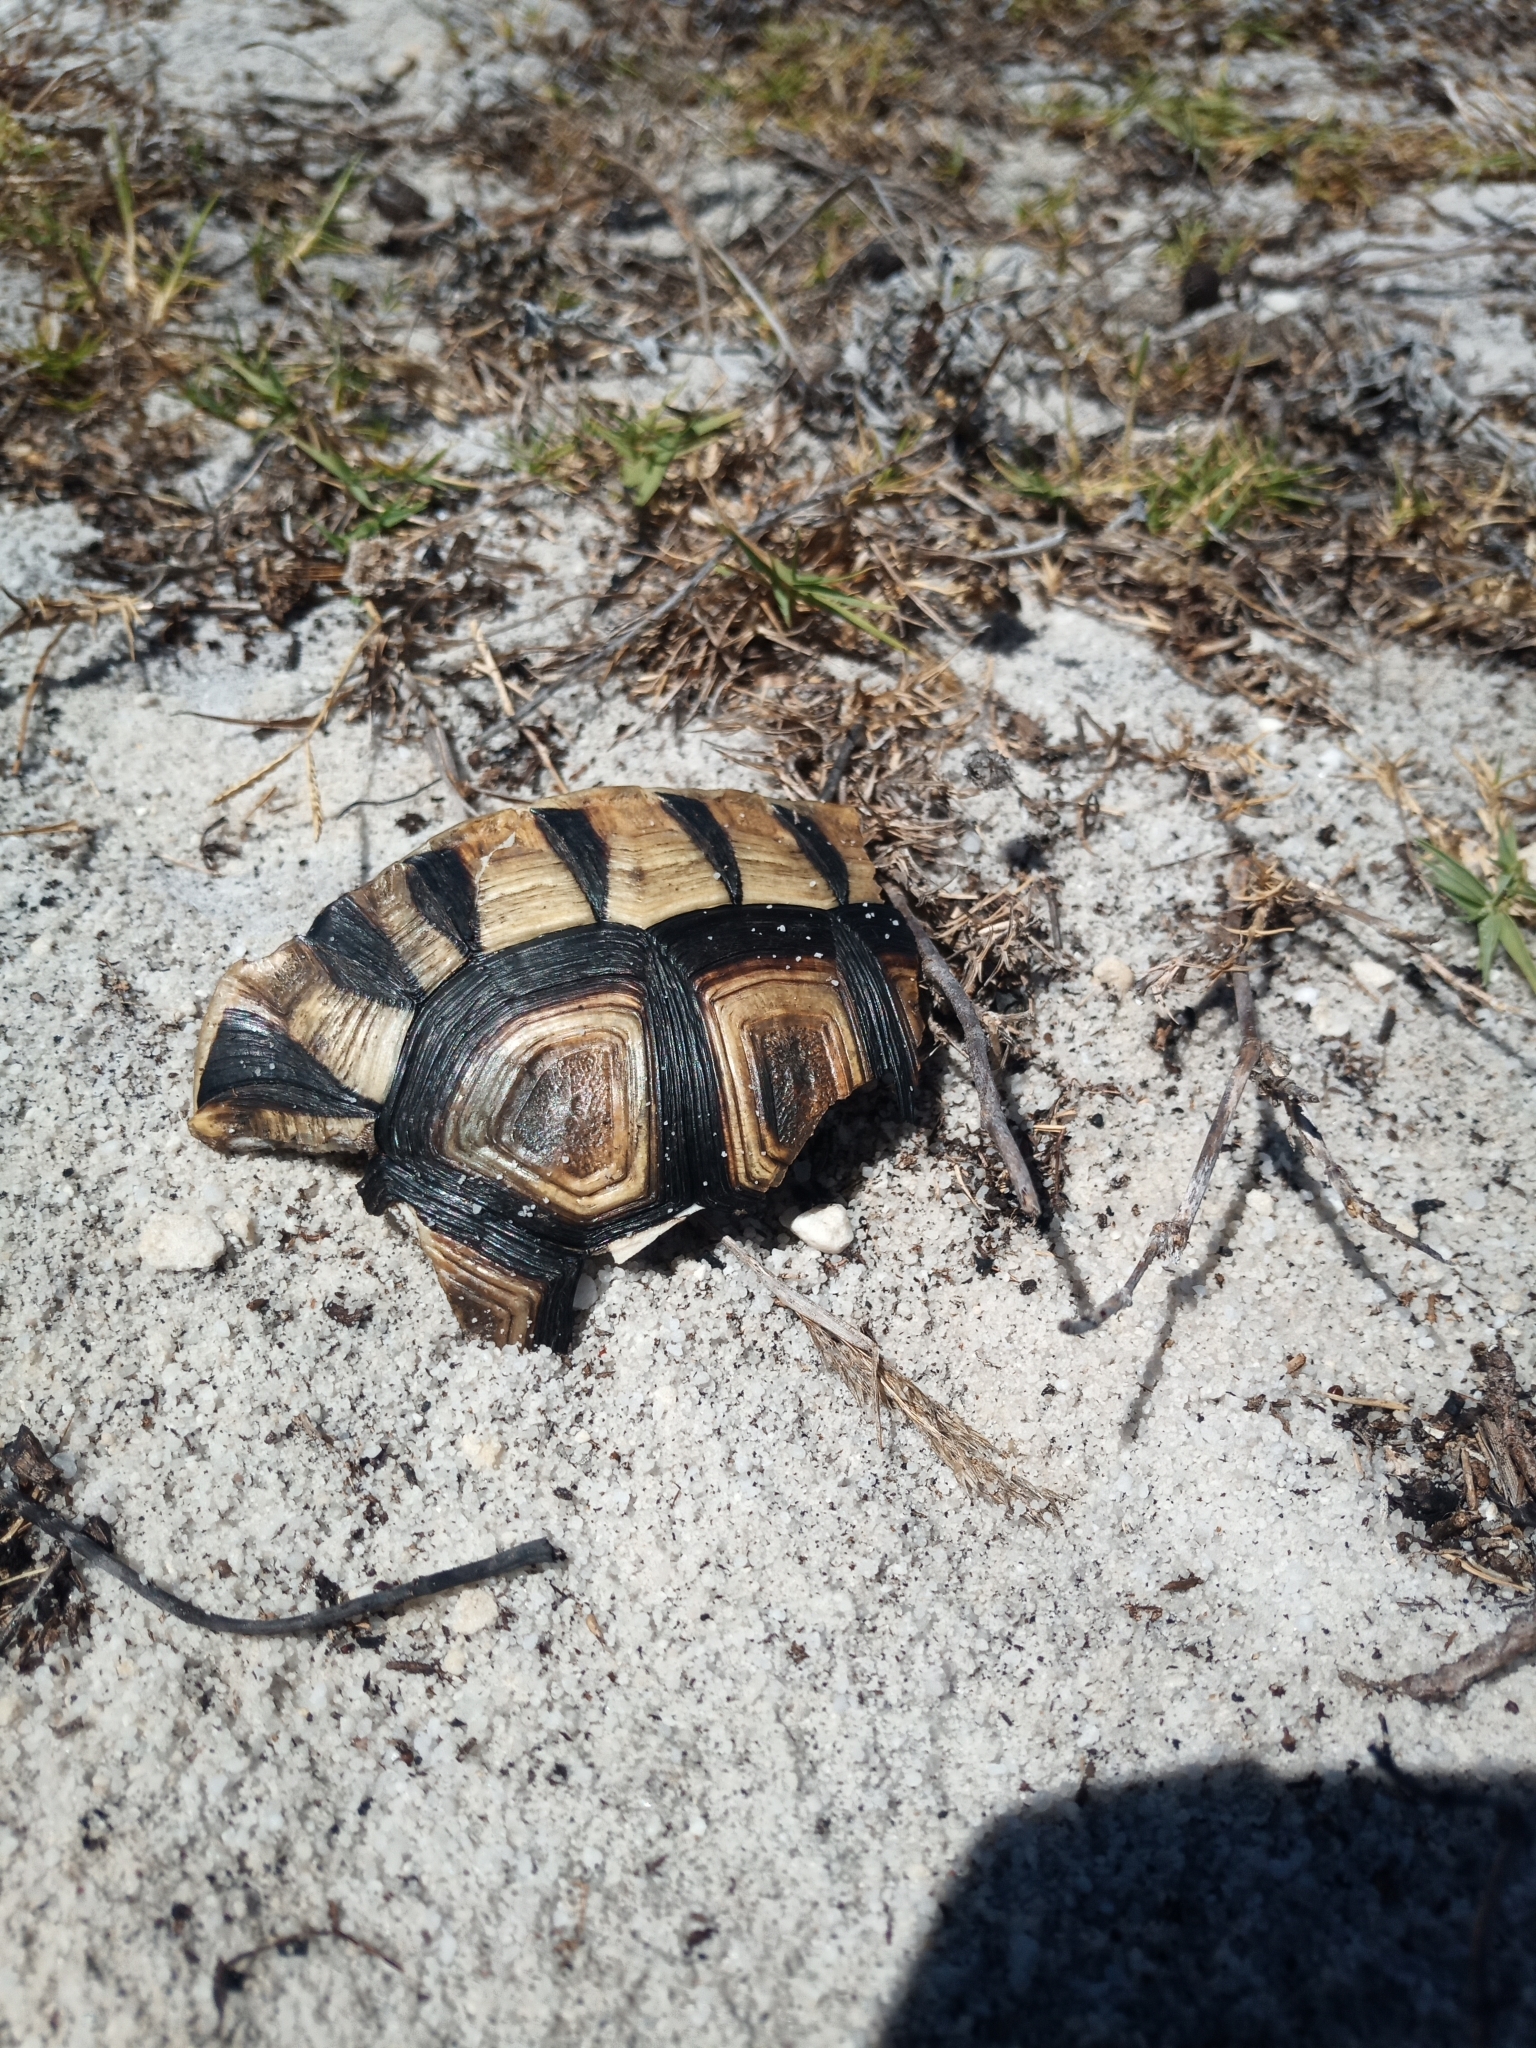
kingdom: Animalia
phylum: Chordata
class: Testudines
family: Testudinidae
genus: Chersina
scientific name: Chersina angulata
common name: South african bowsprit tortoise
